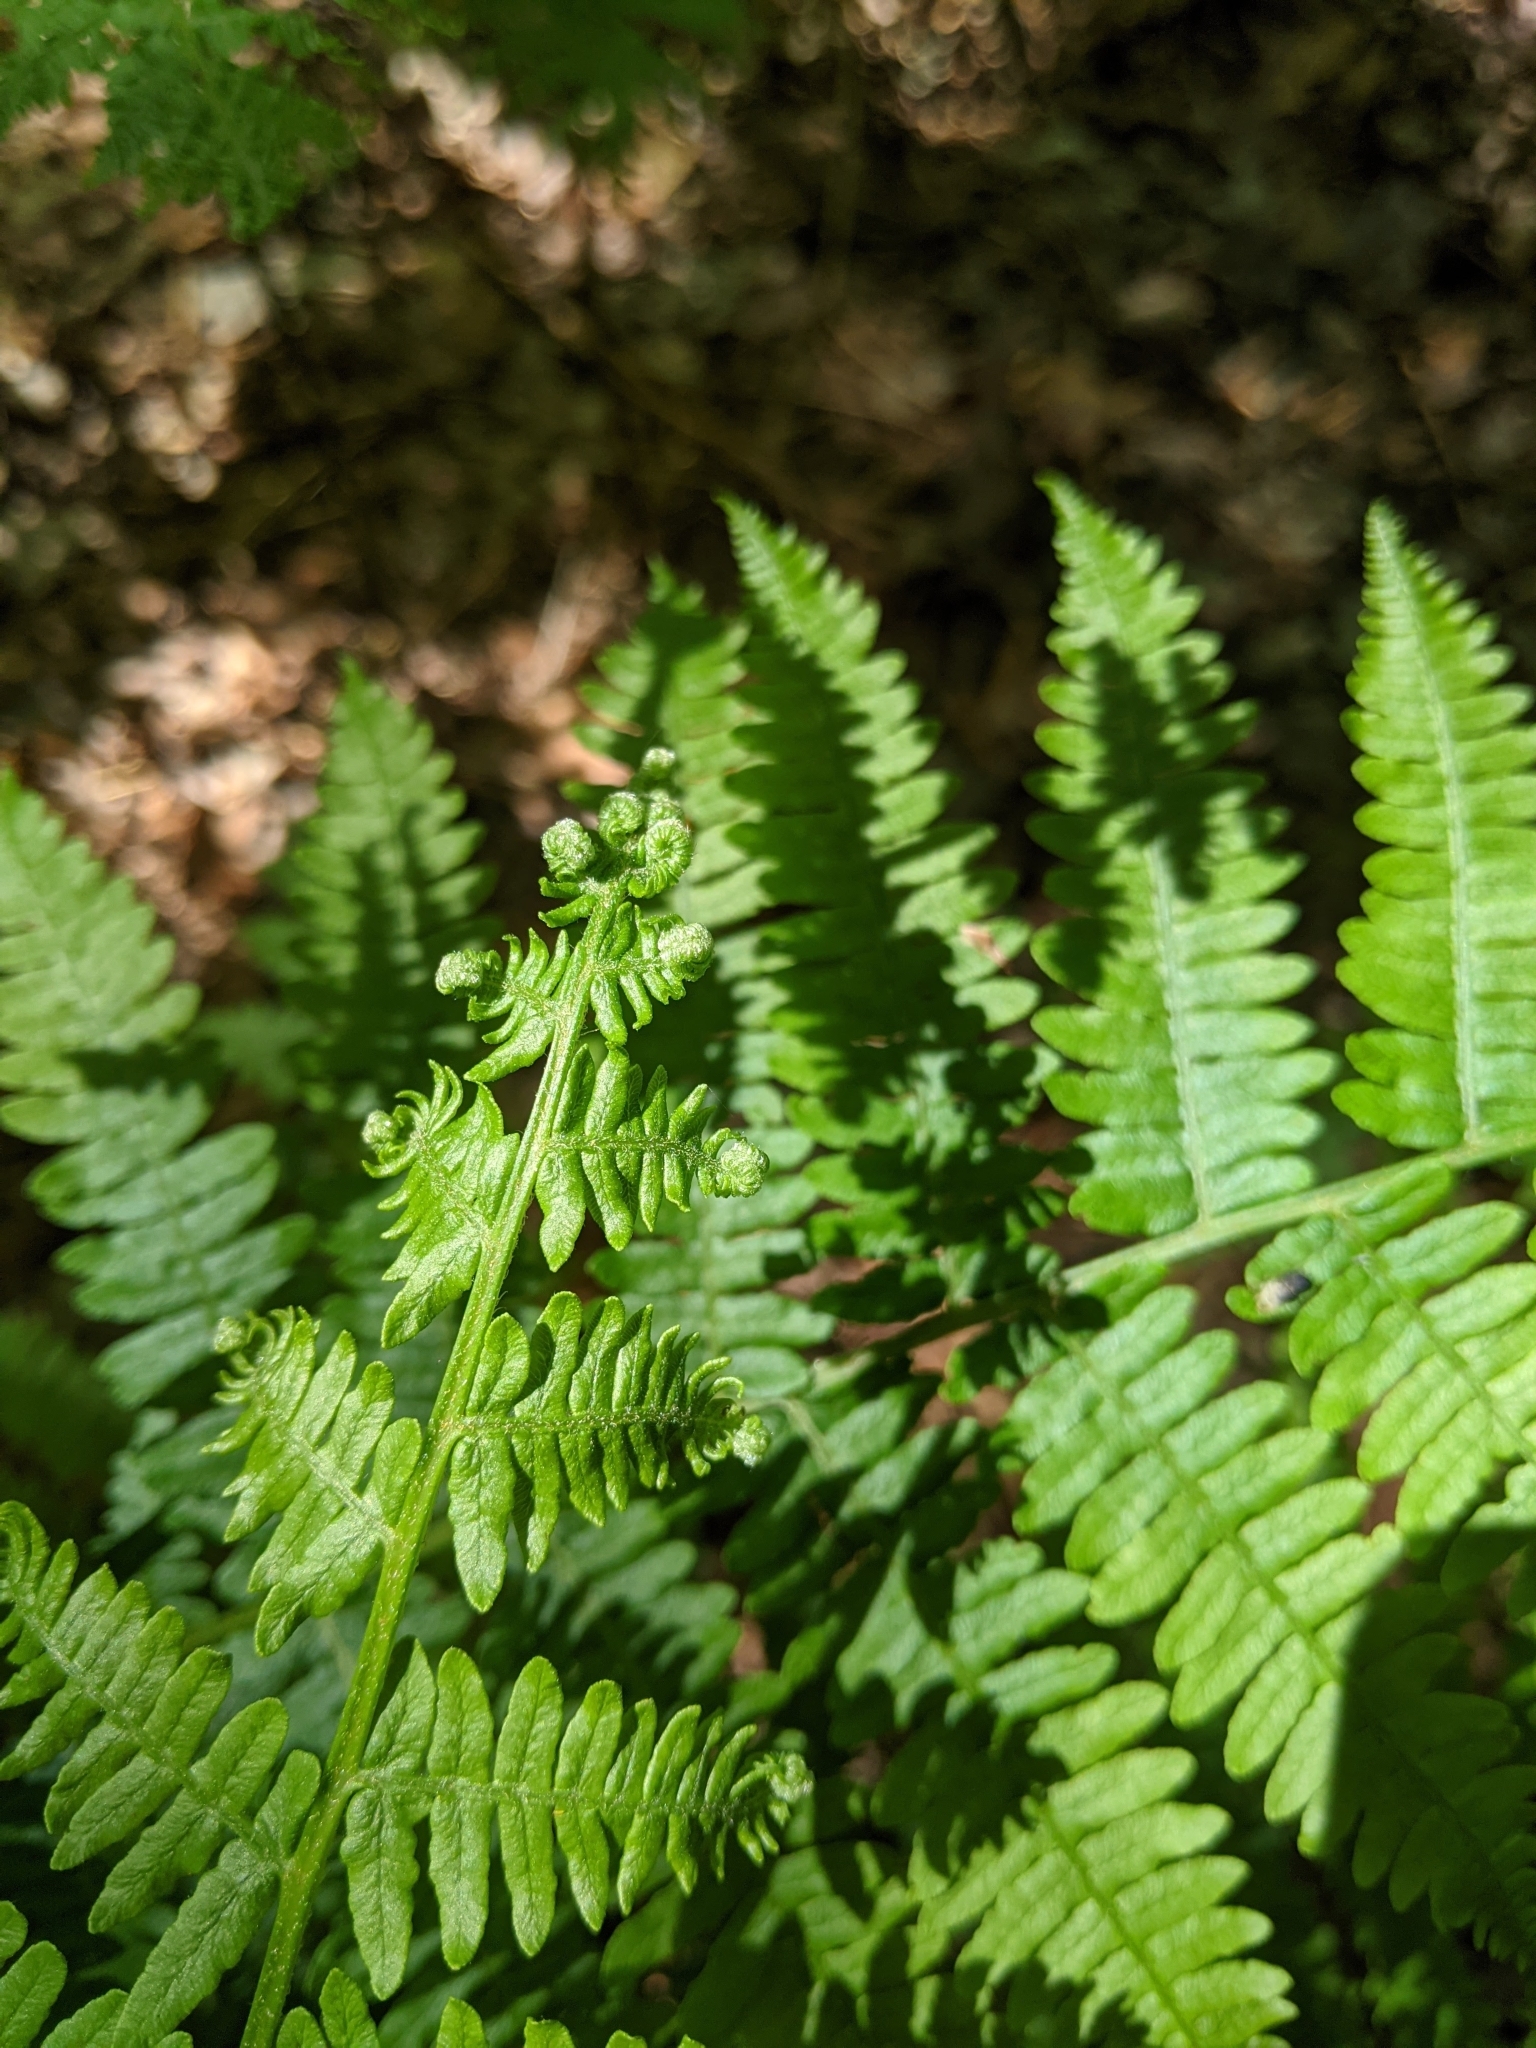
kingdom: Plantae
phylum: Tracheophyta
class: Polypodiopsida
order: Polypodiales
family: Dennstaedtiaceae
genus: Pteridium
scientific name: Pteridium aquilinum
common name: Bracken
